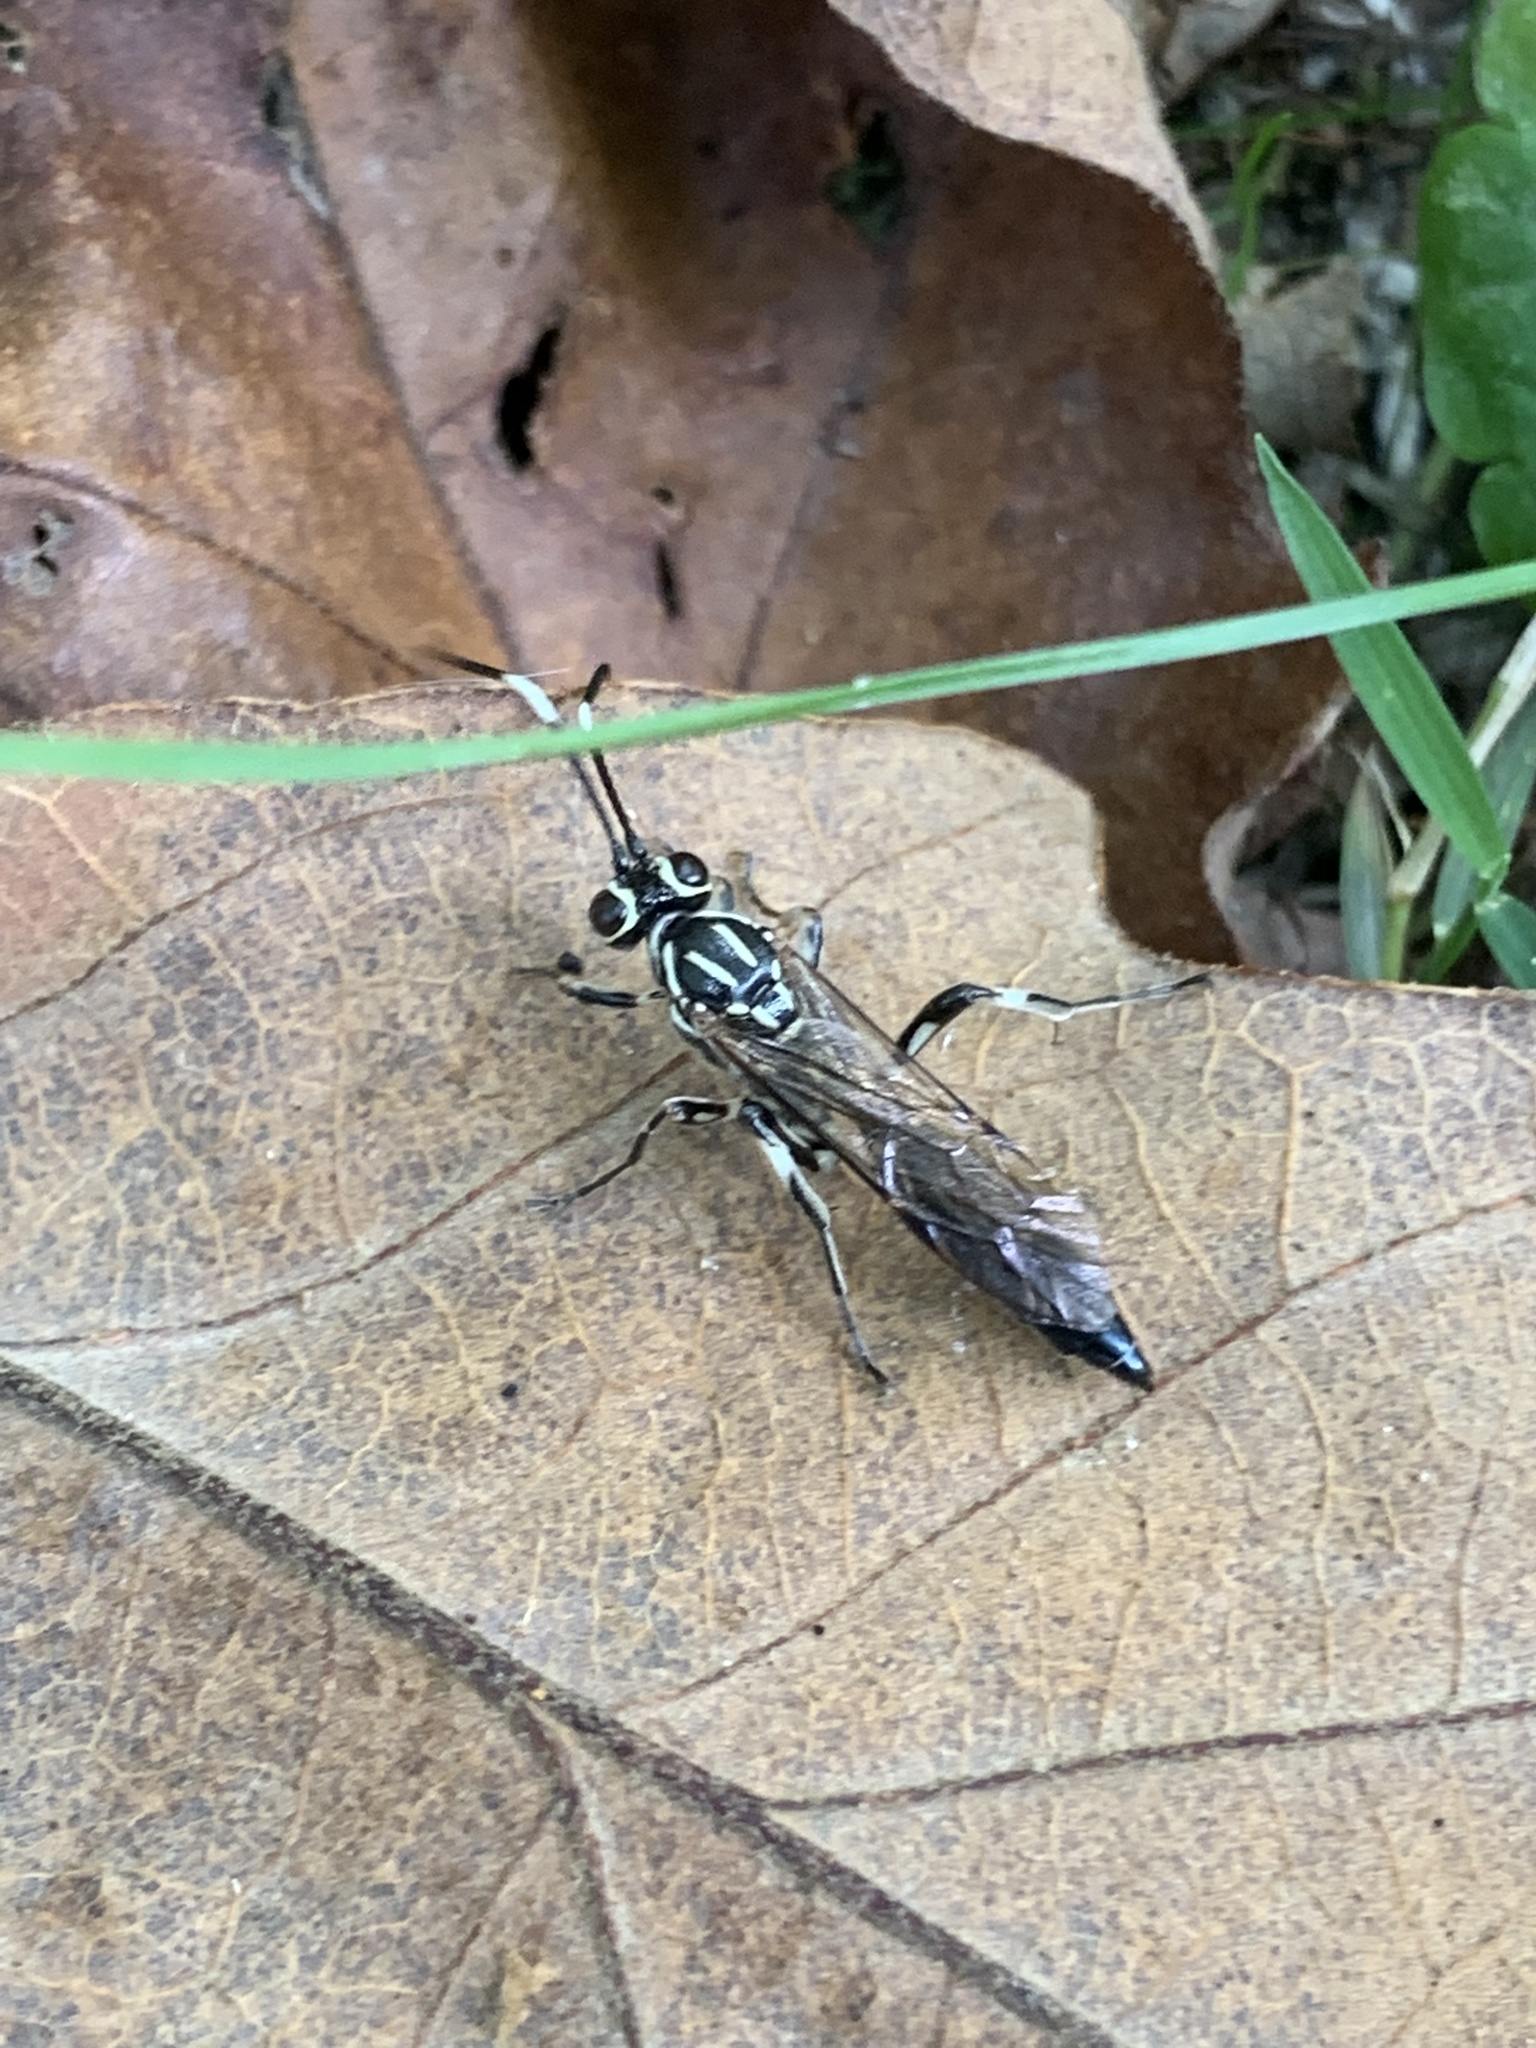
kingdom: Animalia
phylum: Arthropoda
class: Insecta
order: Hymenoptera
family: Ichneumonidae
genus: Coelichneumon
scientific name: Coelichneumon pulcher
